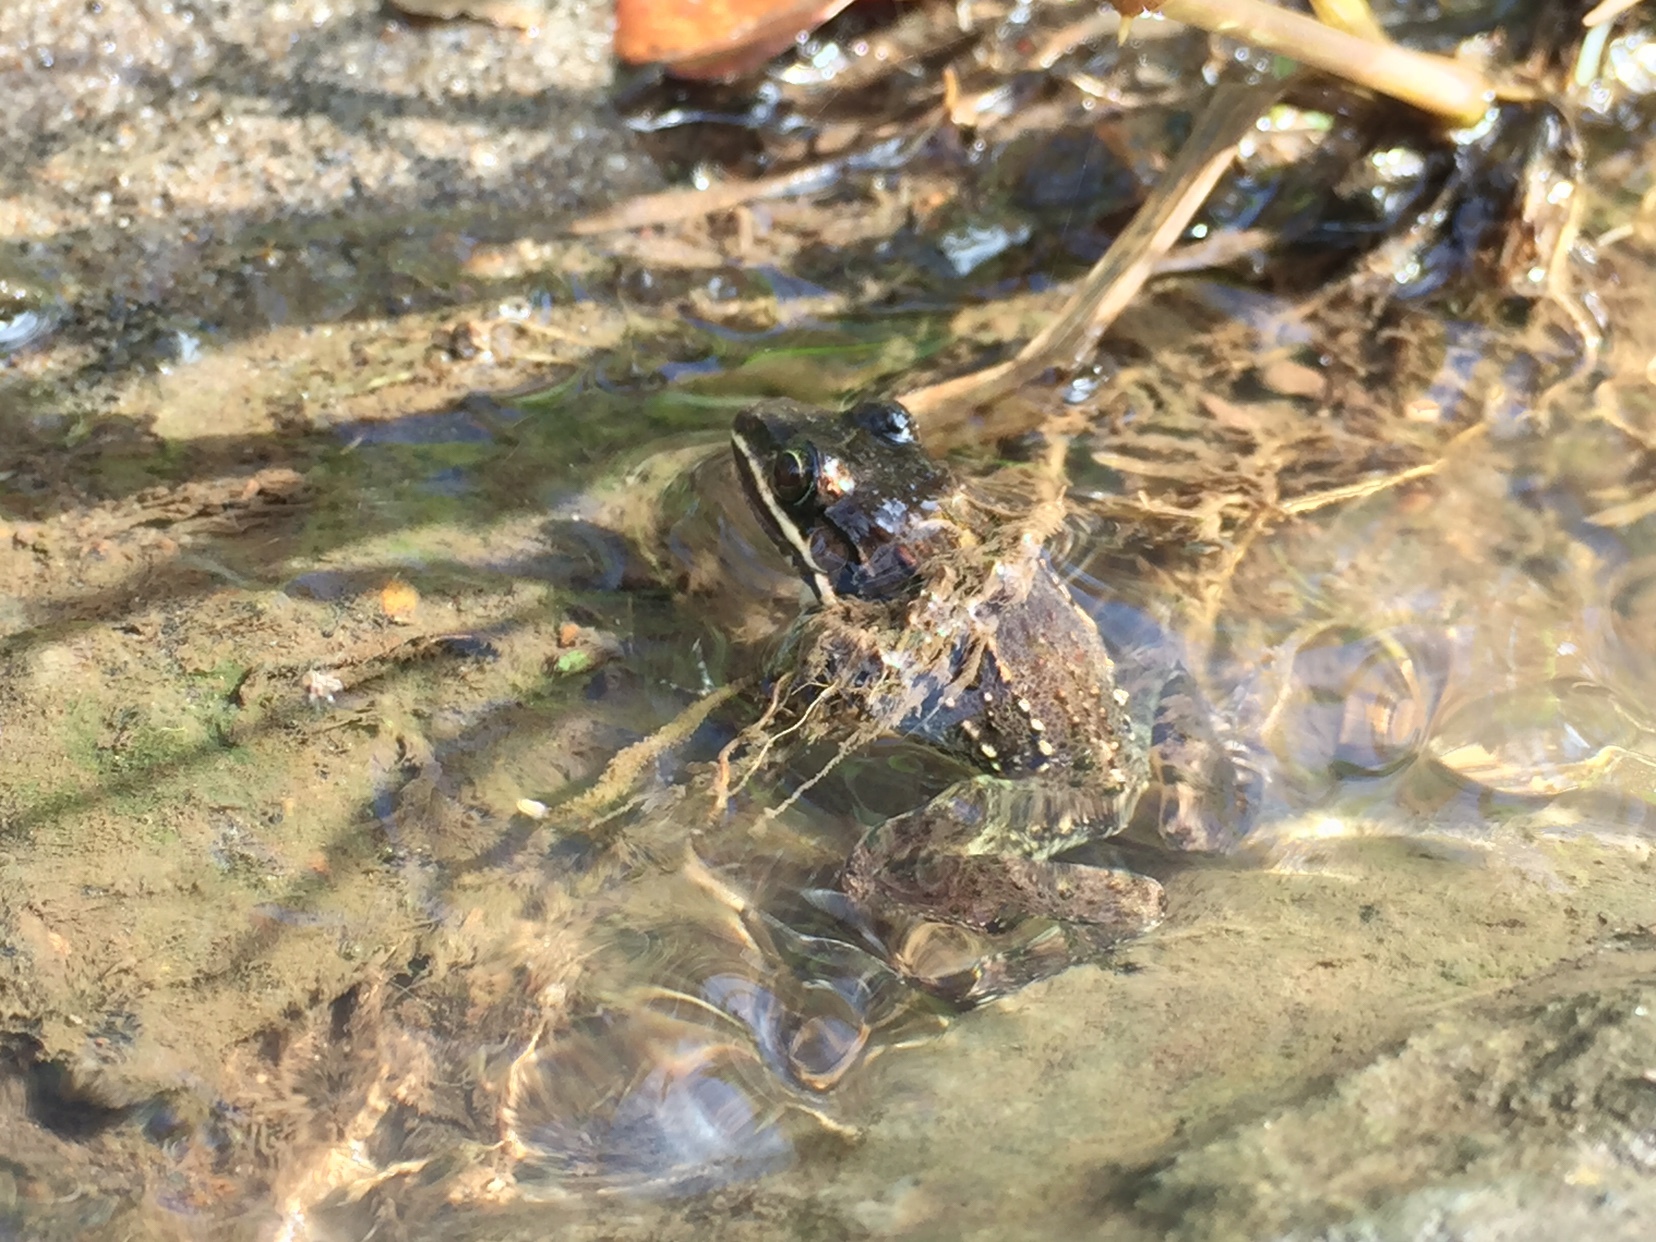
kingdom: Animalia
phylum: Chordata
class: Amphibia
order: Anura
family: Leptodactylidae
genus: Leptodactylus
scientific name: Leptodactylus fragilis
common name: Mexican white-lipped frog
